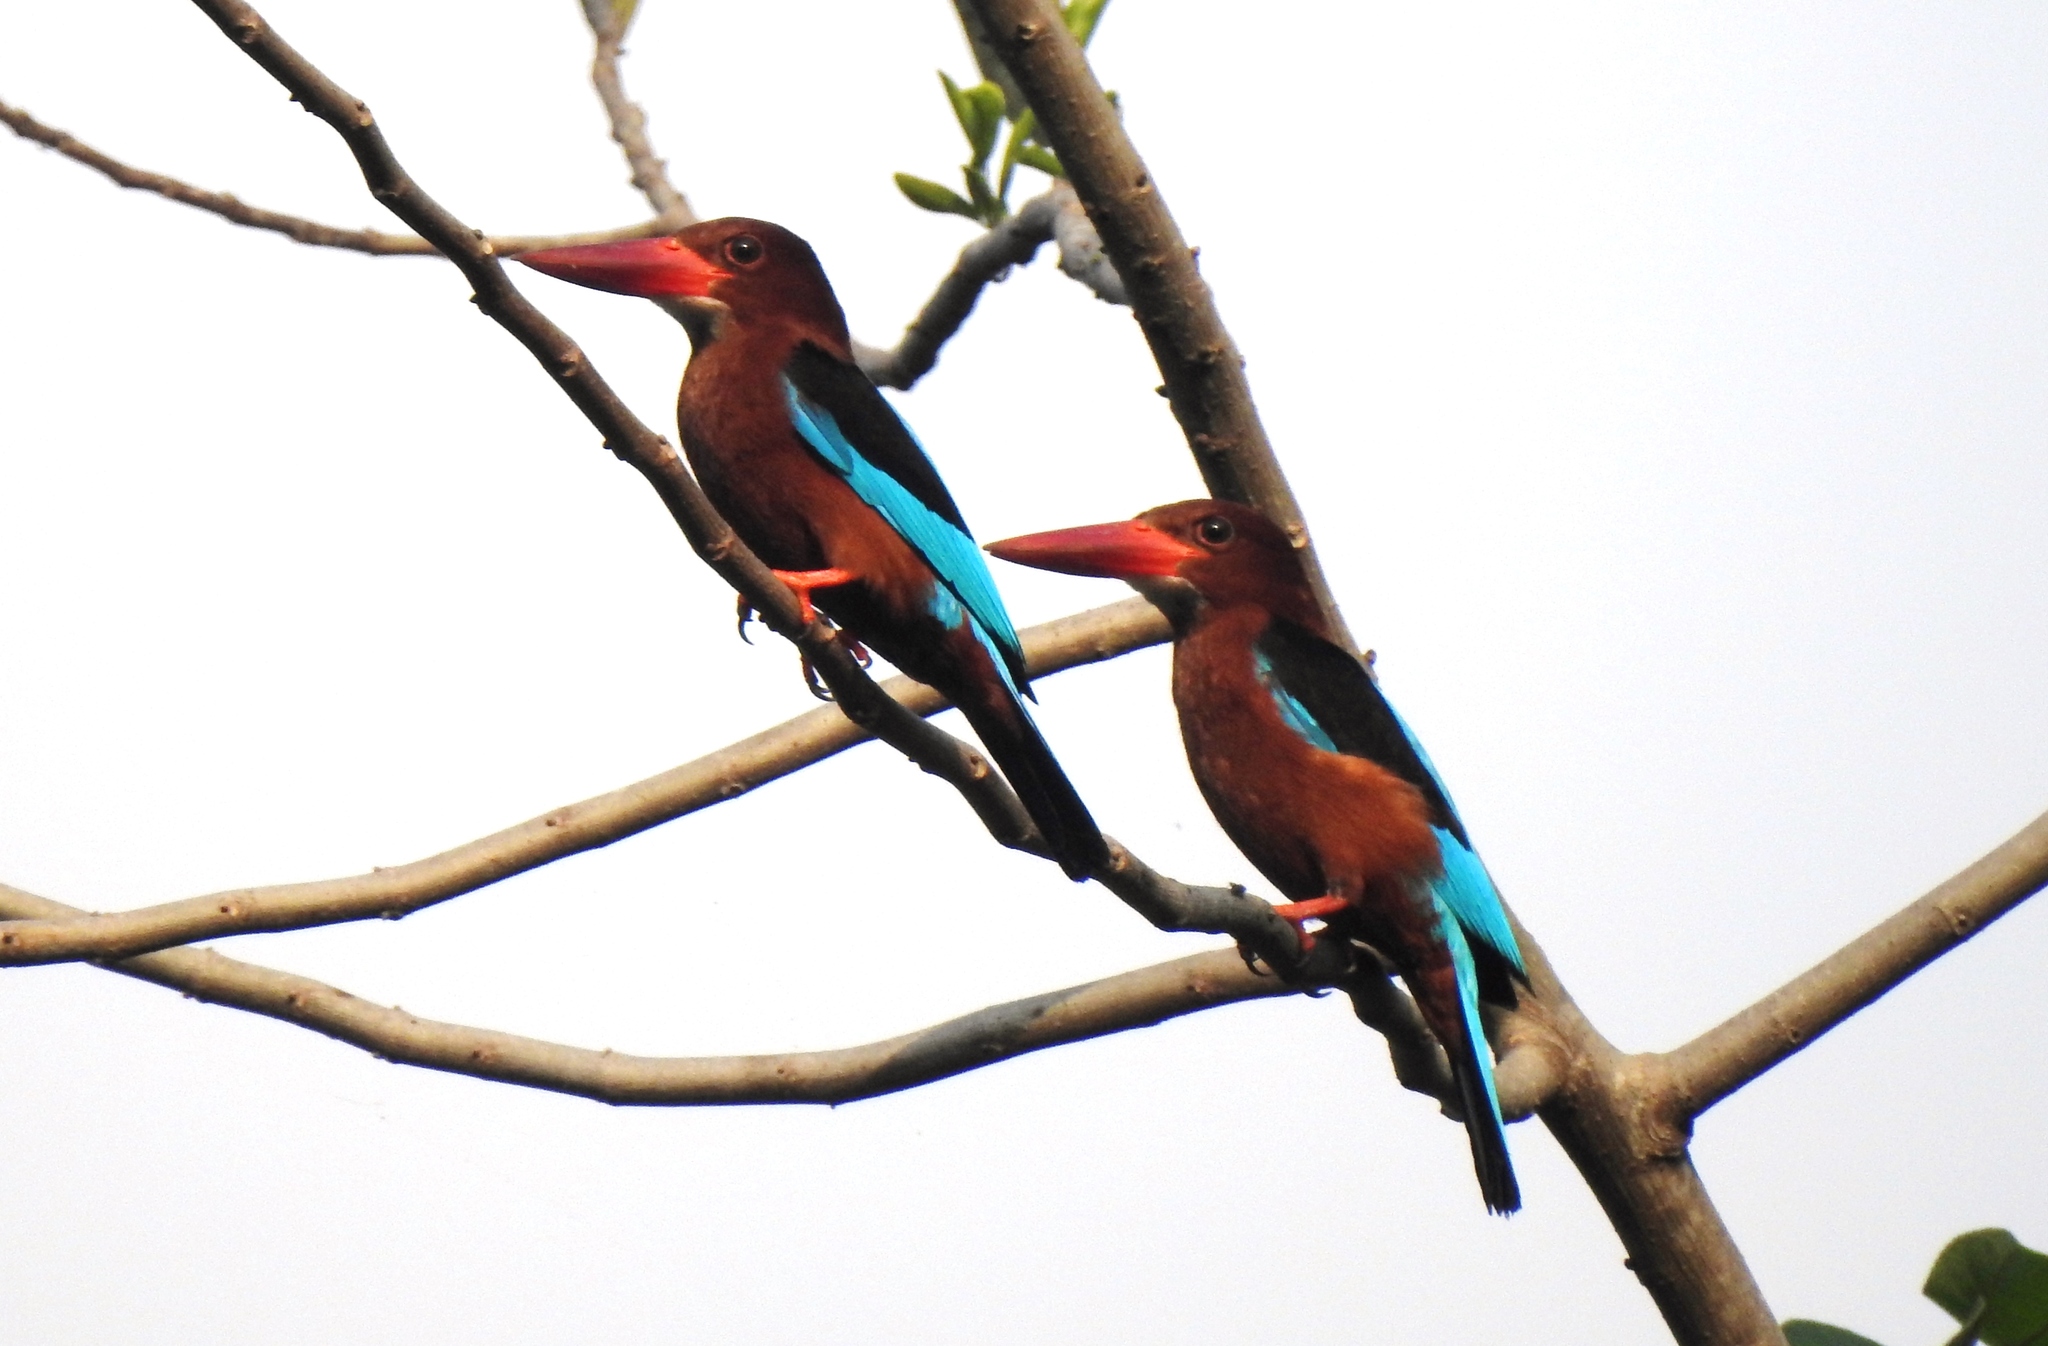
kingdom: Animalia
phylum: Chordata
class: Aves
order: Coraciiformes
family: Alcedinidae
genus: Halcyon
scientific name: Halcyon gularis
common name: Brown-breasted kingfisher
